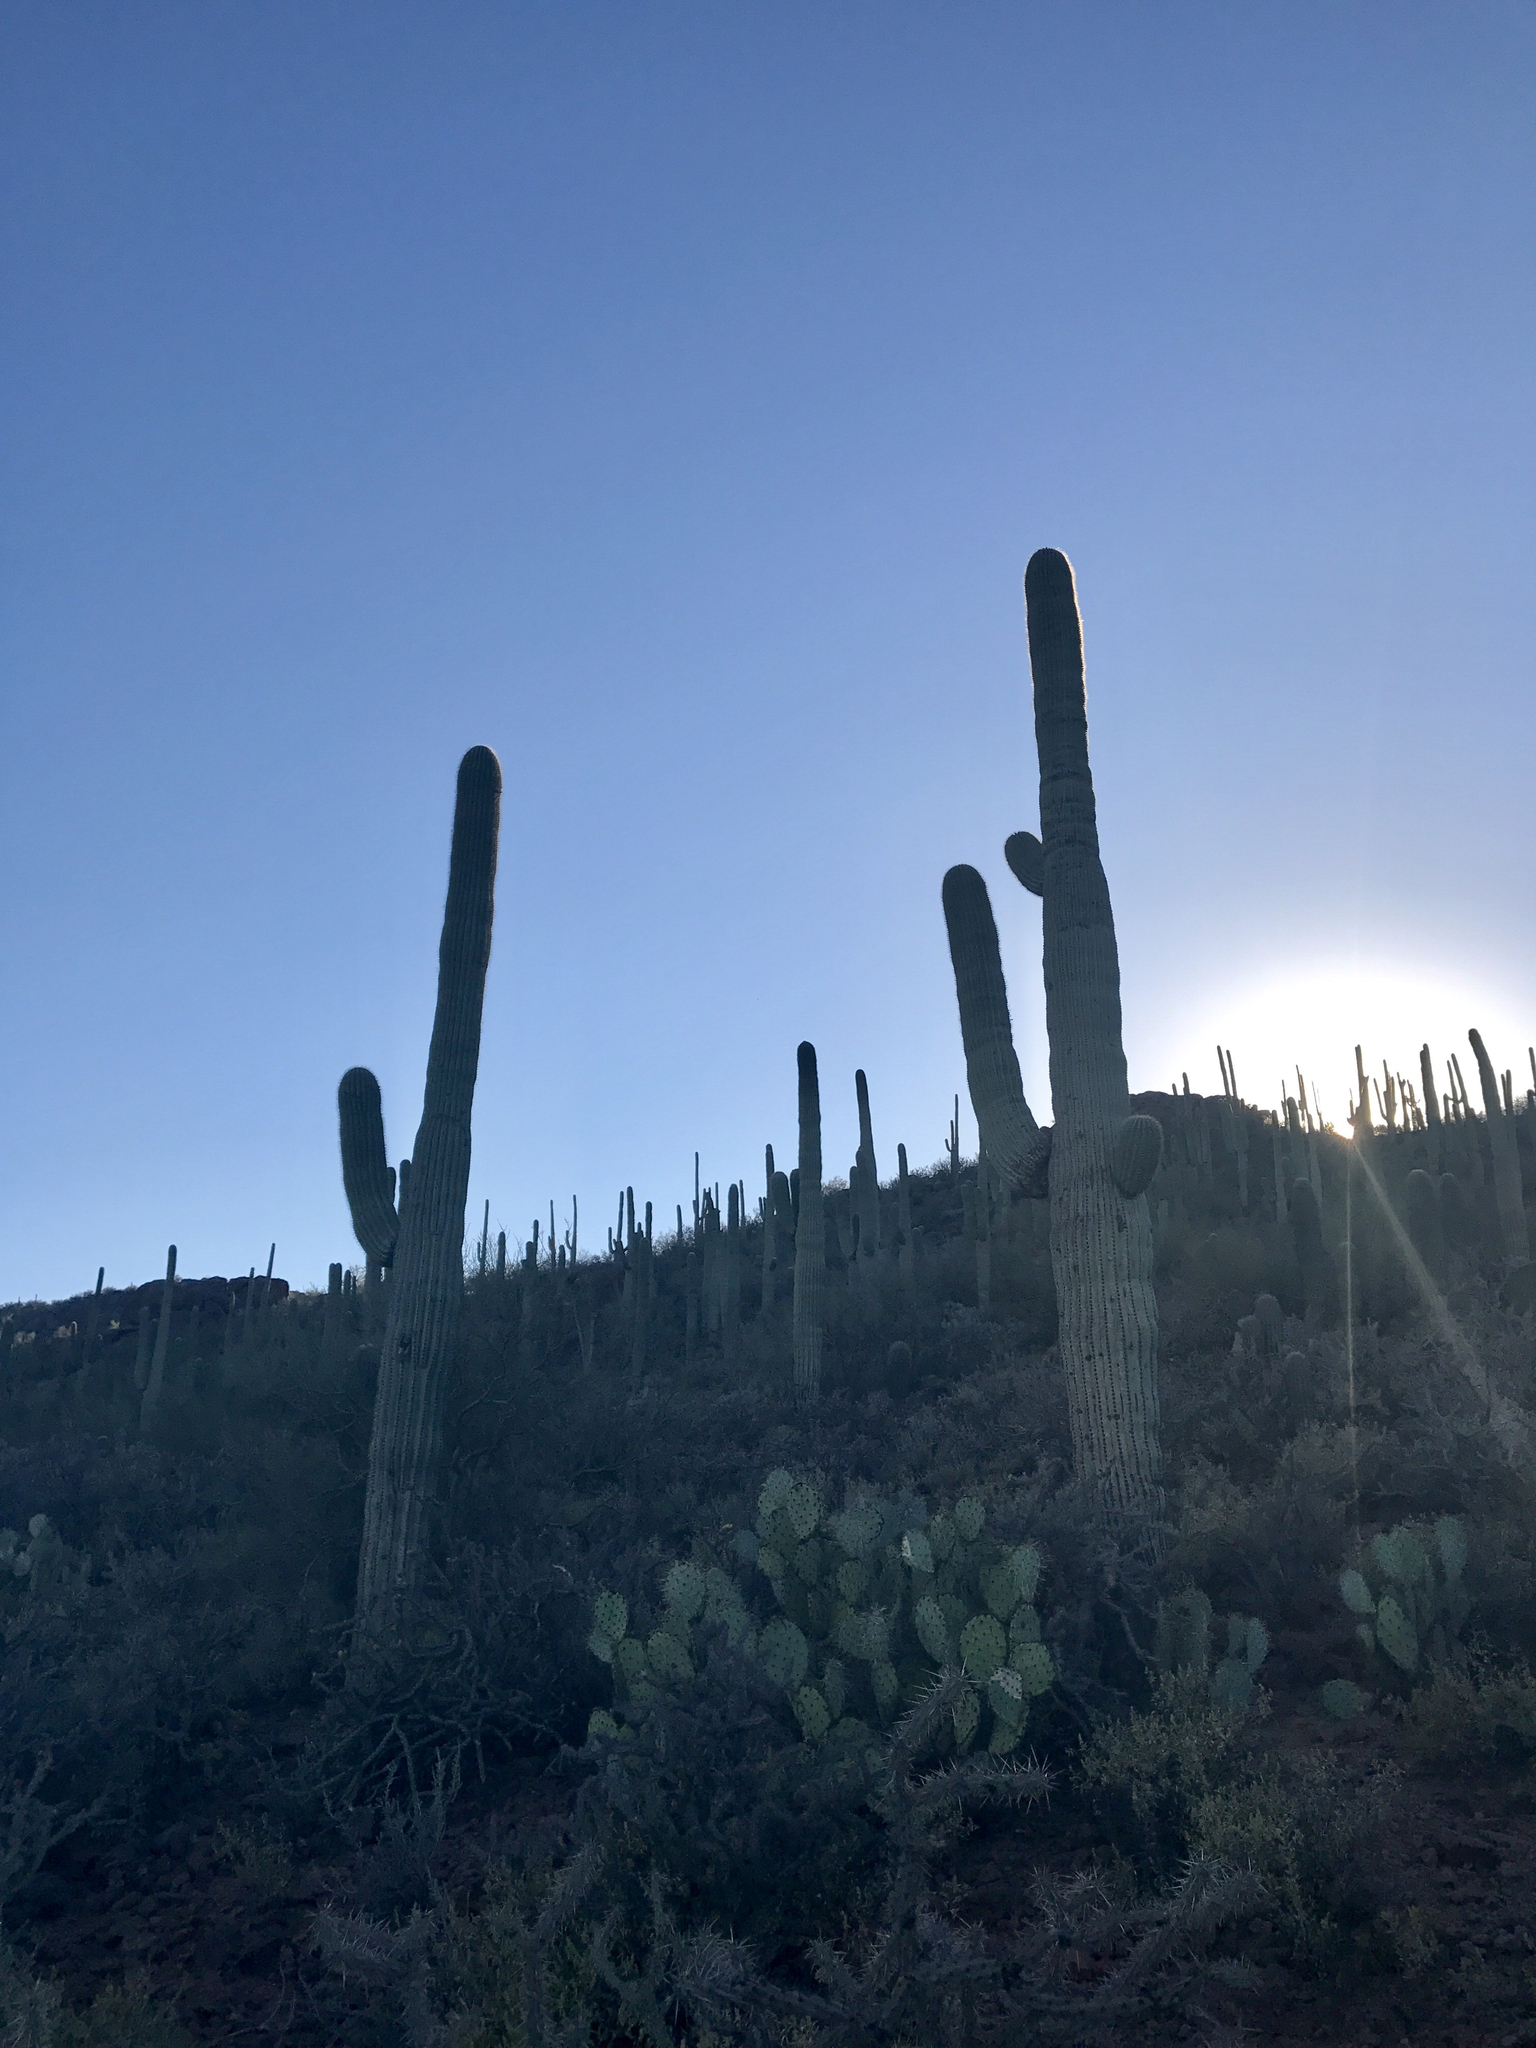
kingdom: Plantae
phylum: Tracheophyta
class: Magnoliopsida
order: Caryophyllales
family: Cactaceae
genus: Carnegiea
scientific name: Carnegiea gigantea
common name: Saguaro
